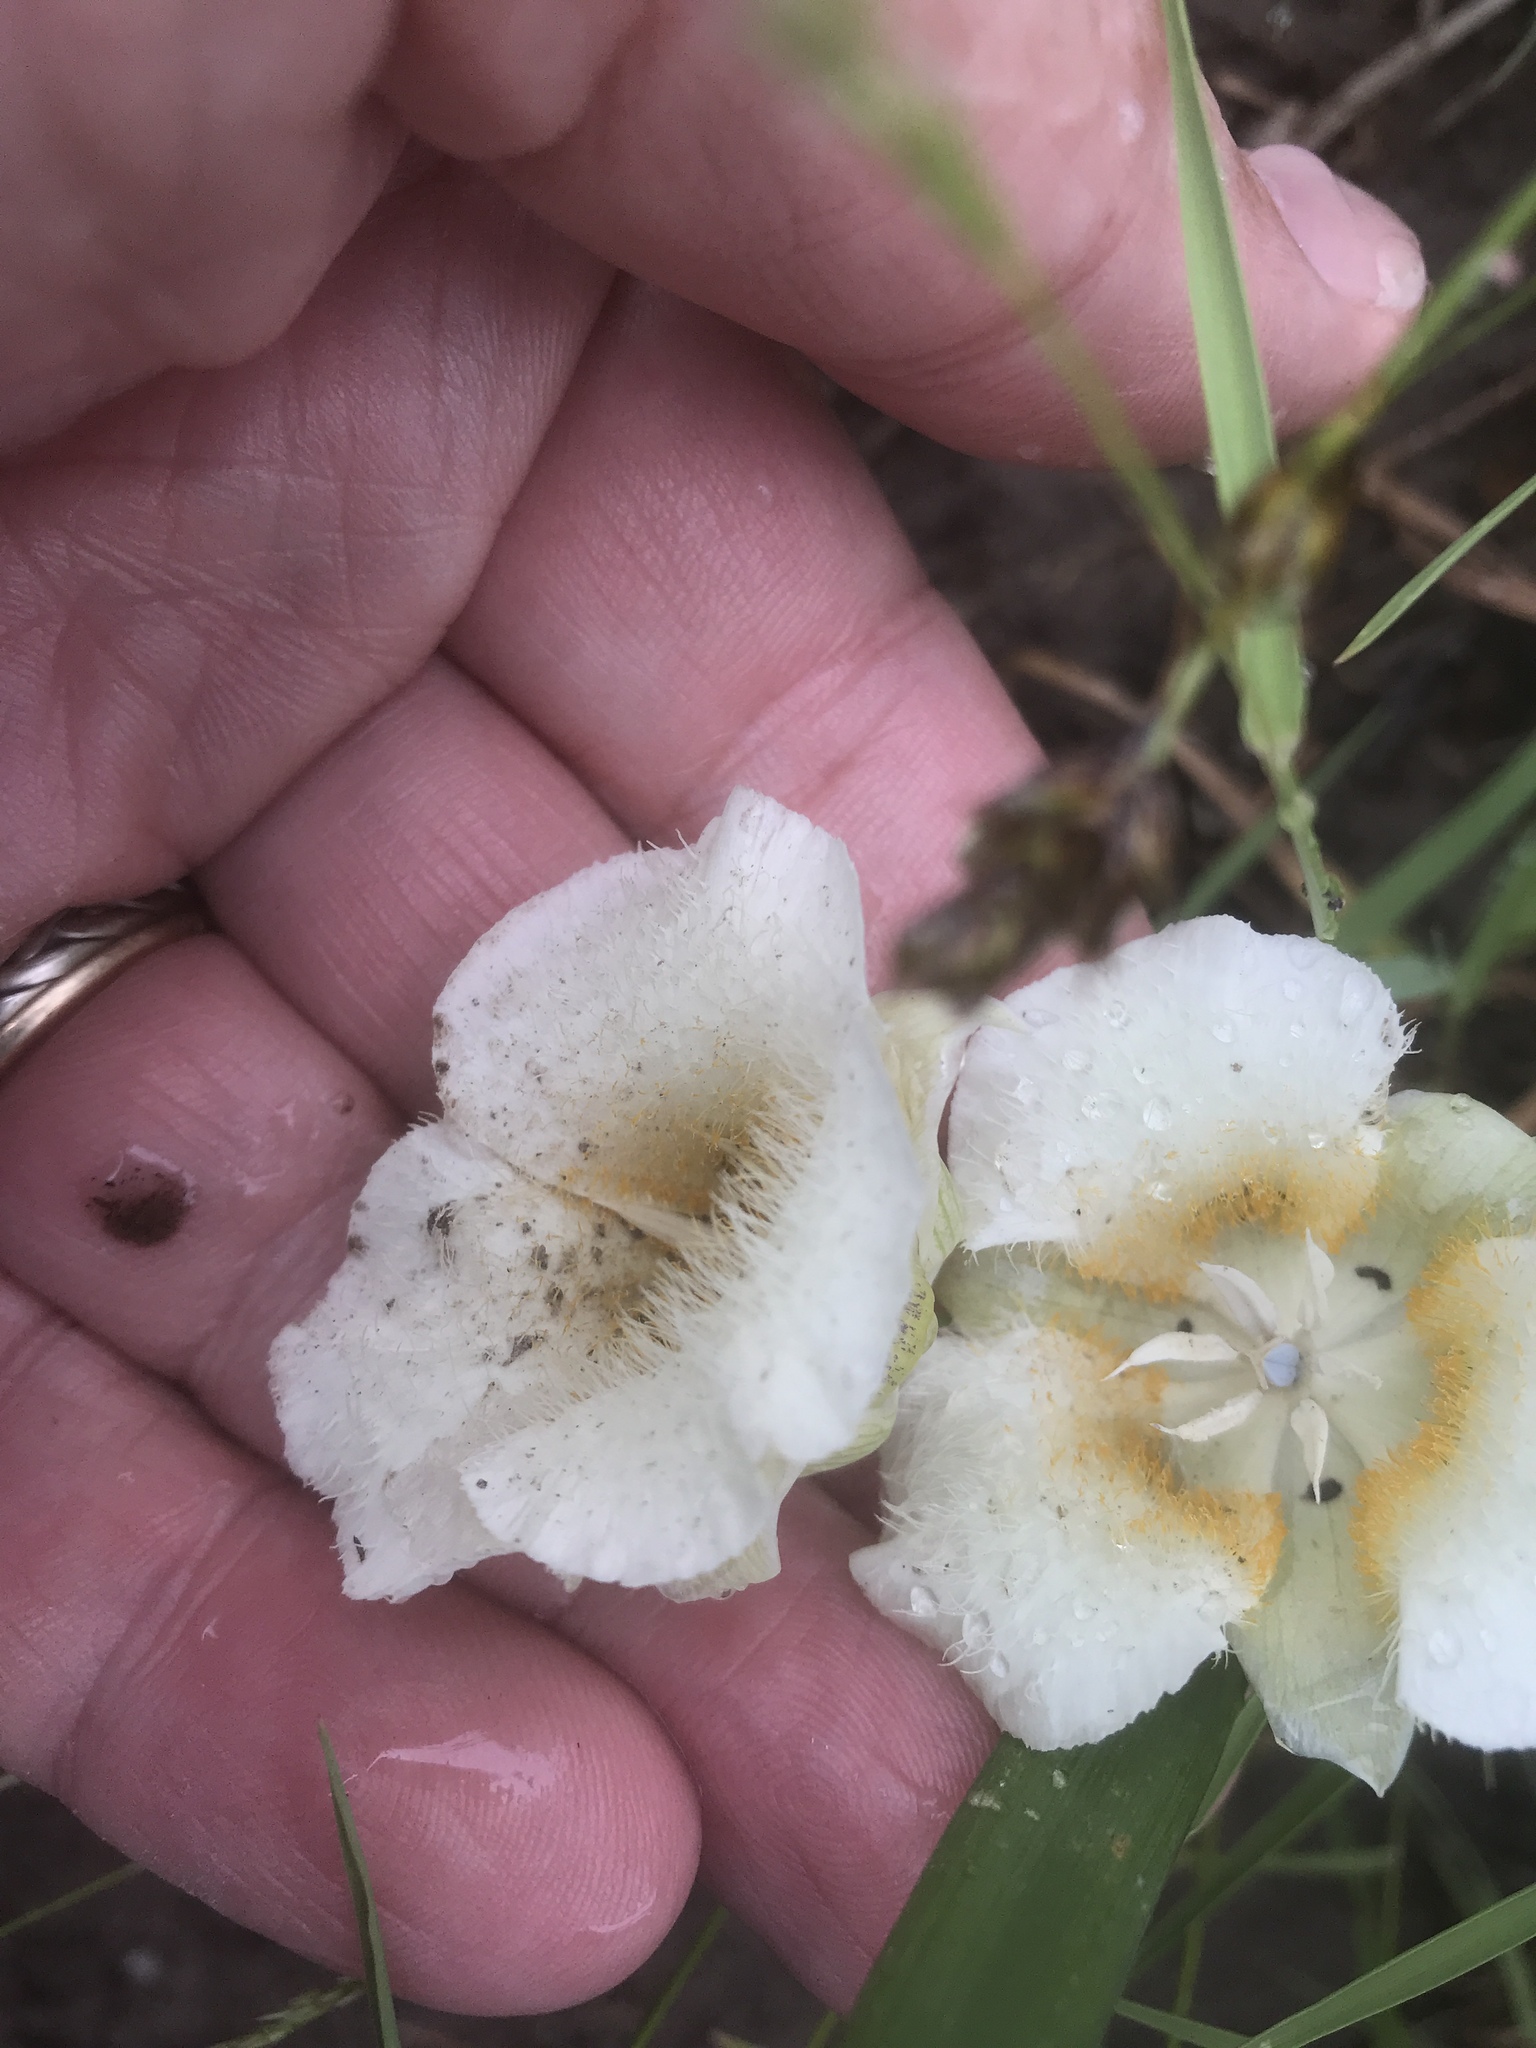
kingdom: Plantae
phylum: Tracheophyta
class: Liliopsida
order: Liliales
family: Liliaceae
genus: Calochortus
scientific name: Calochortus subalpinus
